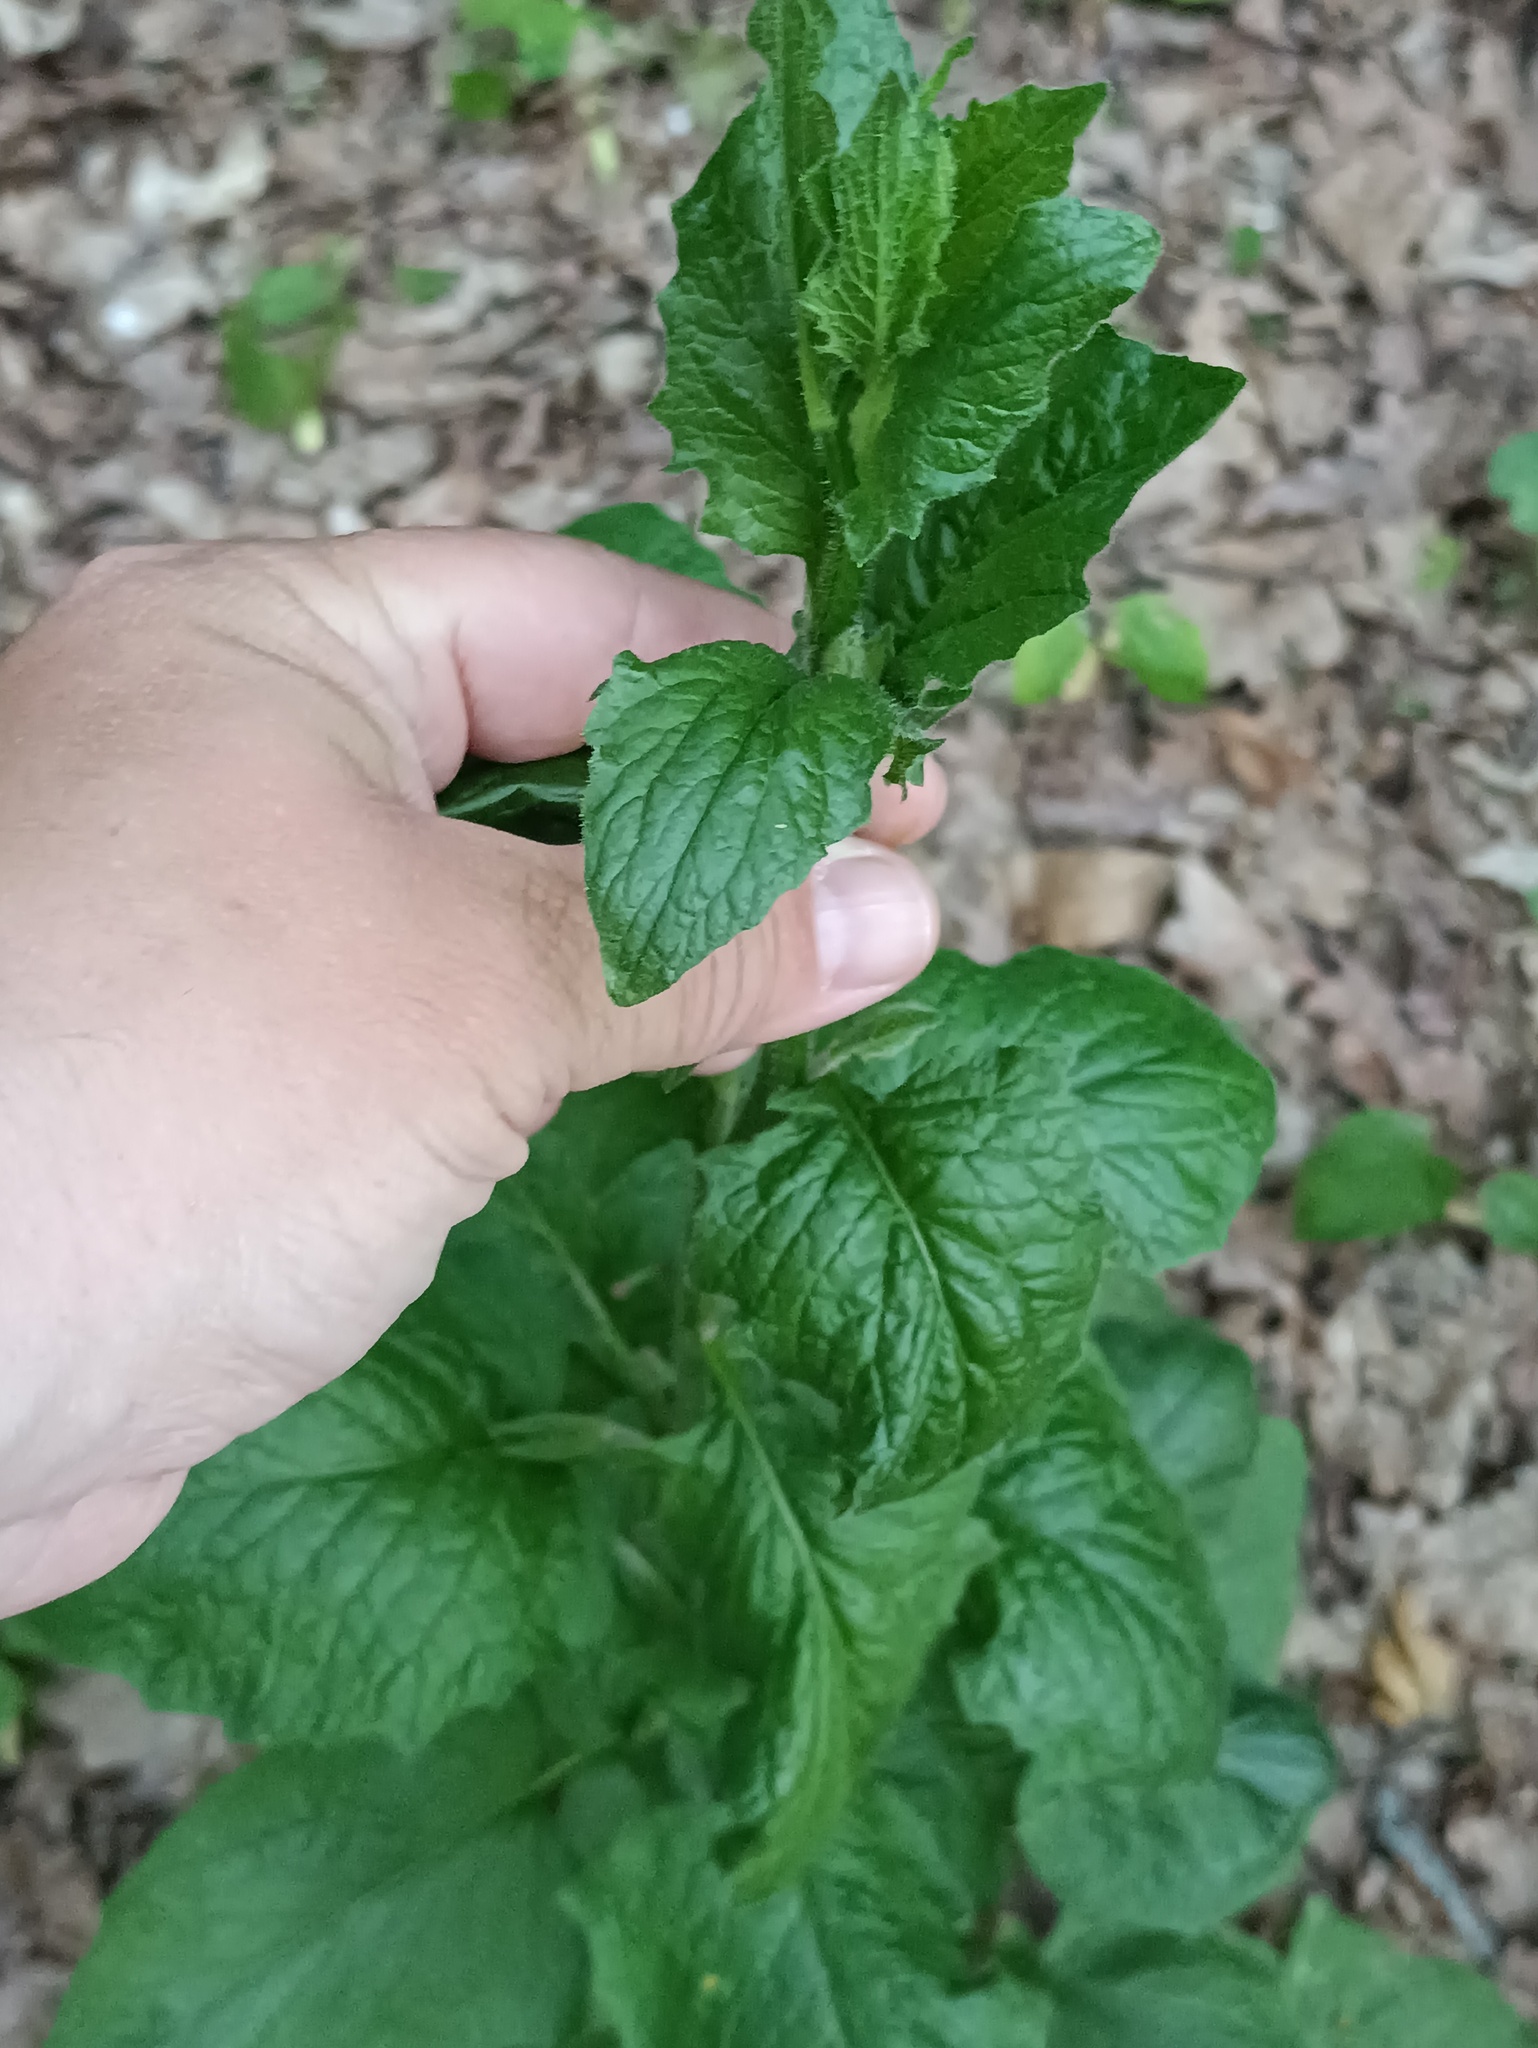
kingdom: Plantae
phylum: Tracheophyta
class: Magnoliopsida
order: Asterales
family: Asteraceae
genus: Lapsana
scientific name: Lapsana communis
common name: Nipplewort
